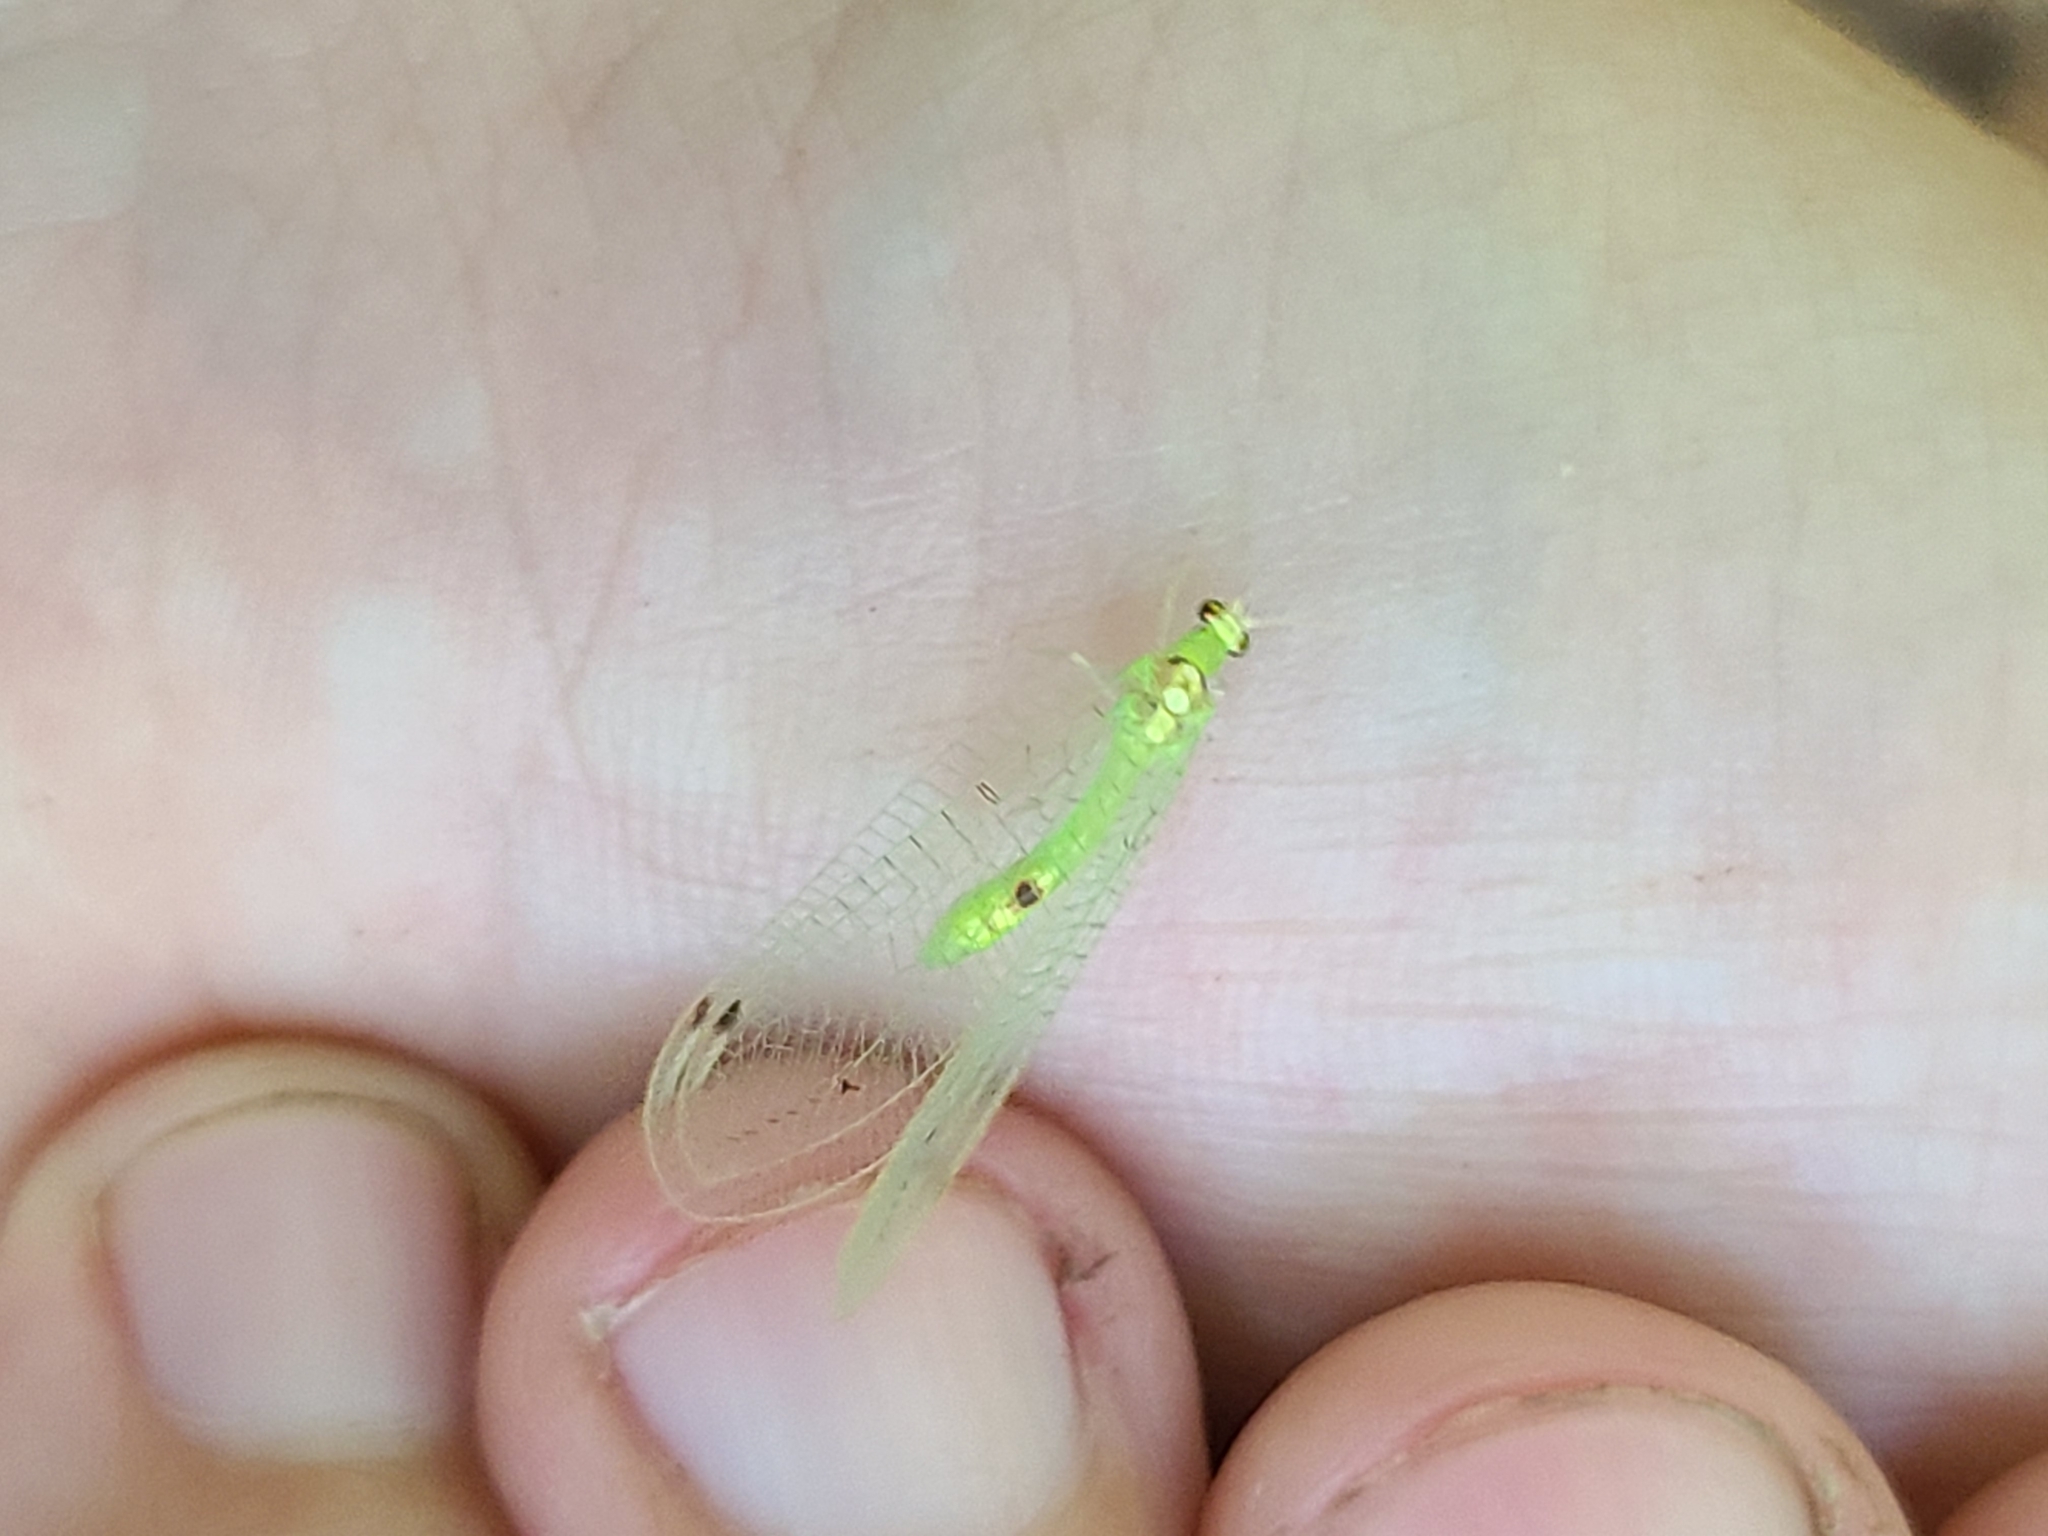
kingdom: Animalia
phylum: Arthropoda
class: Insecta
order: Neuroptera
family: Chrysopidae
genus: Leucochrysa
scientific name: Leucochrysa insularis
